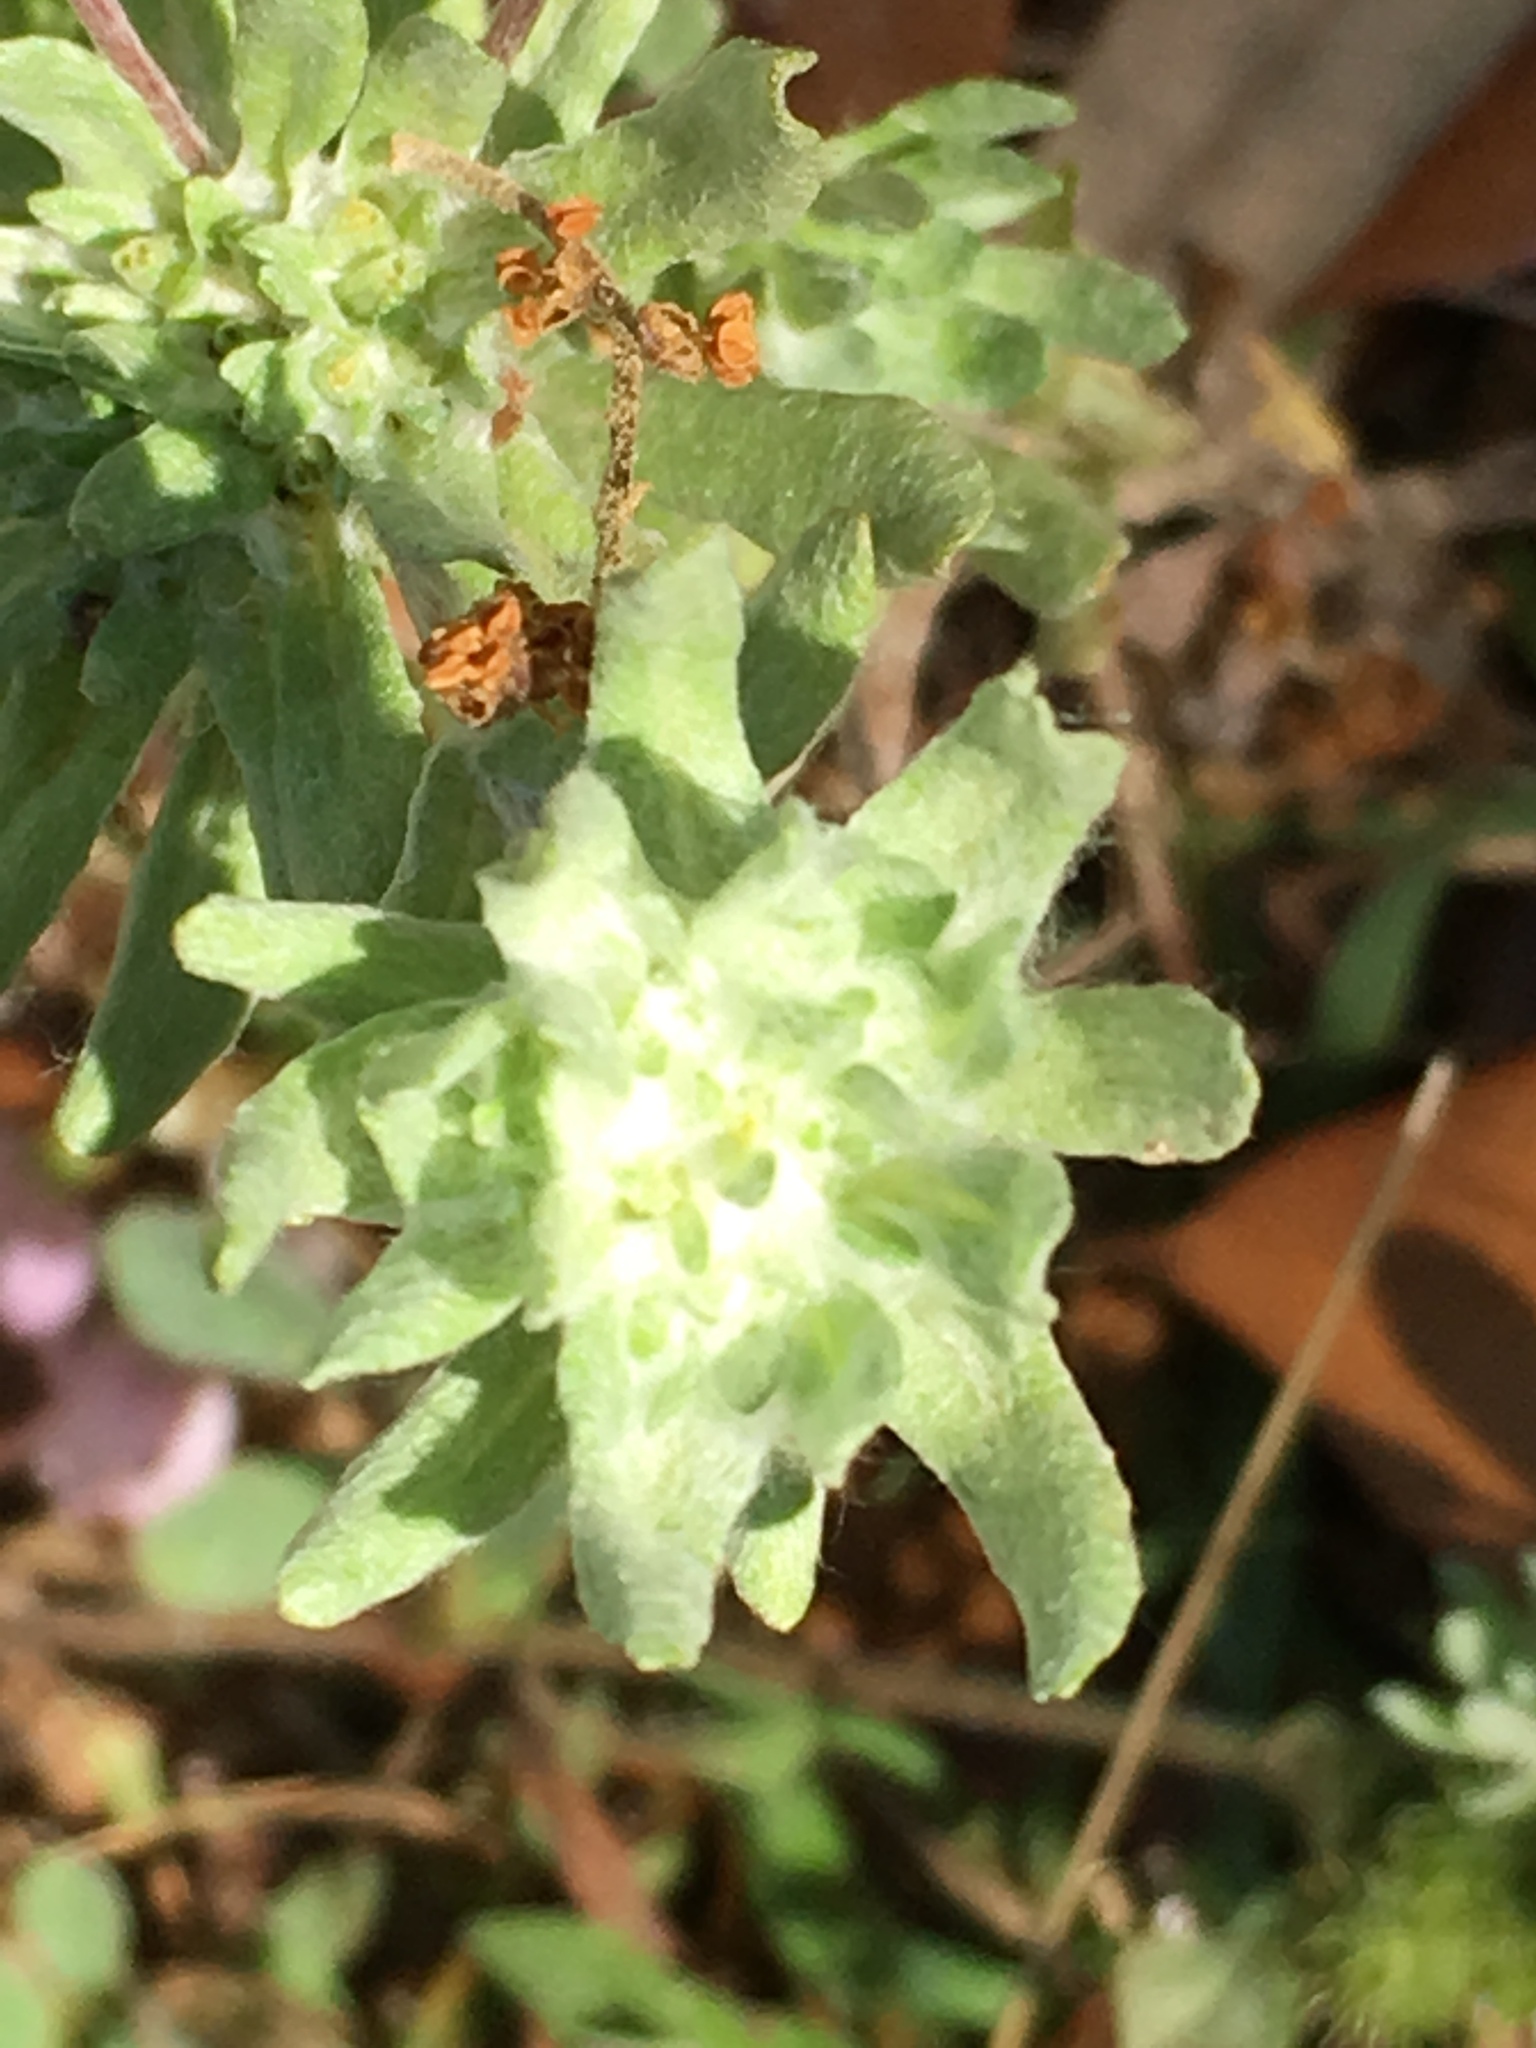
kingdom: Plantae
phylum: Tracheophyta
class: Magnoliopsida
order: Asterales
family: Asteraceae
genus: Diaperia
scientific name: Diaperia prolifera
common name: Big-head rabbit-tobacco
